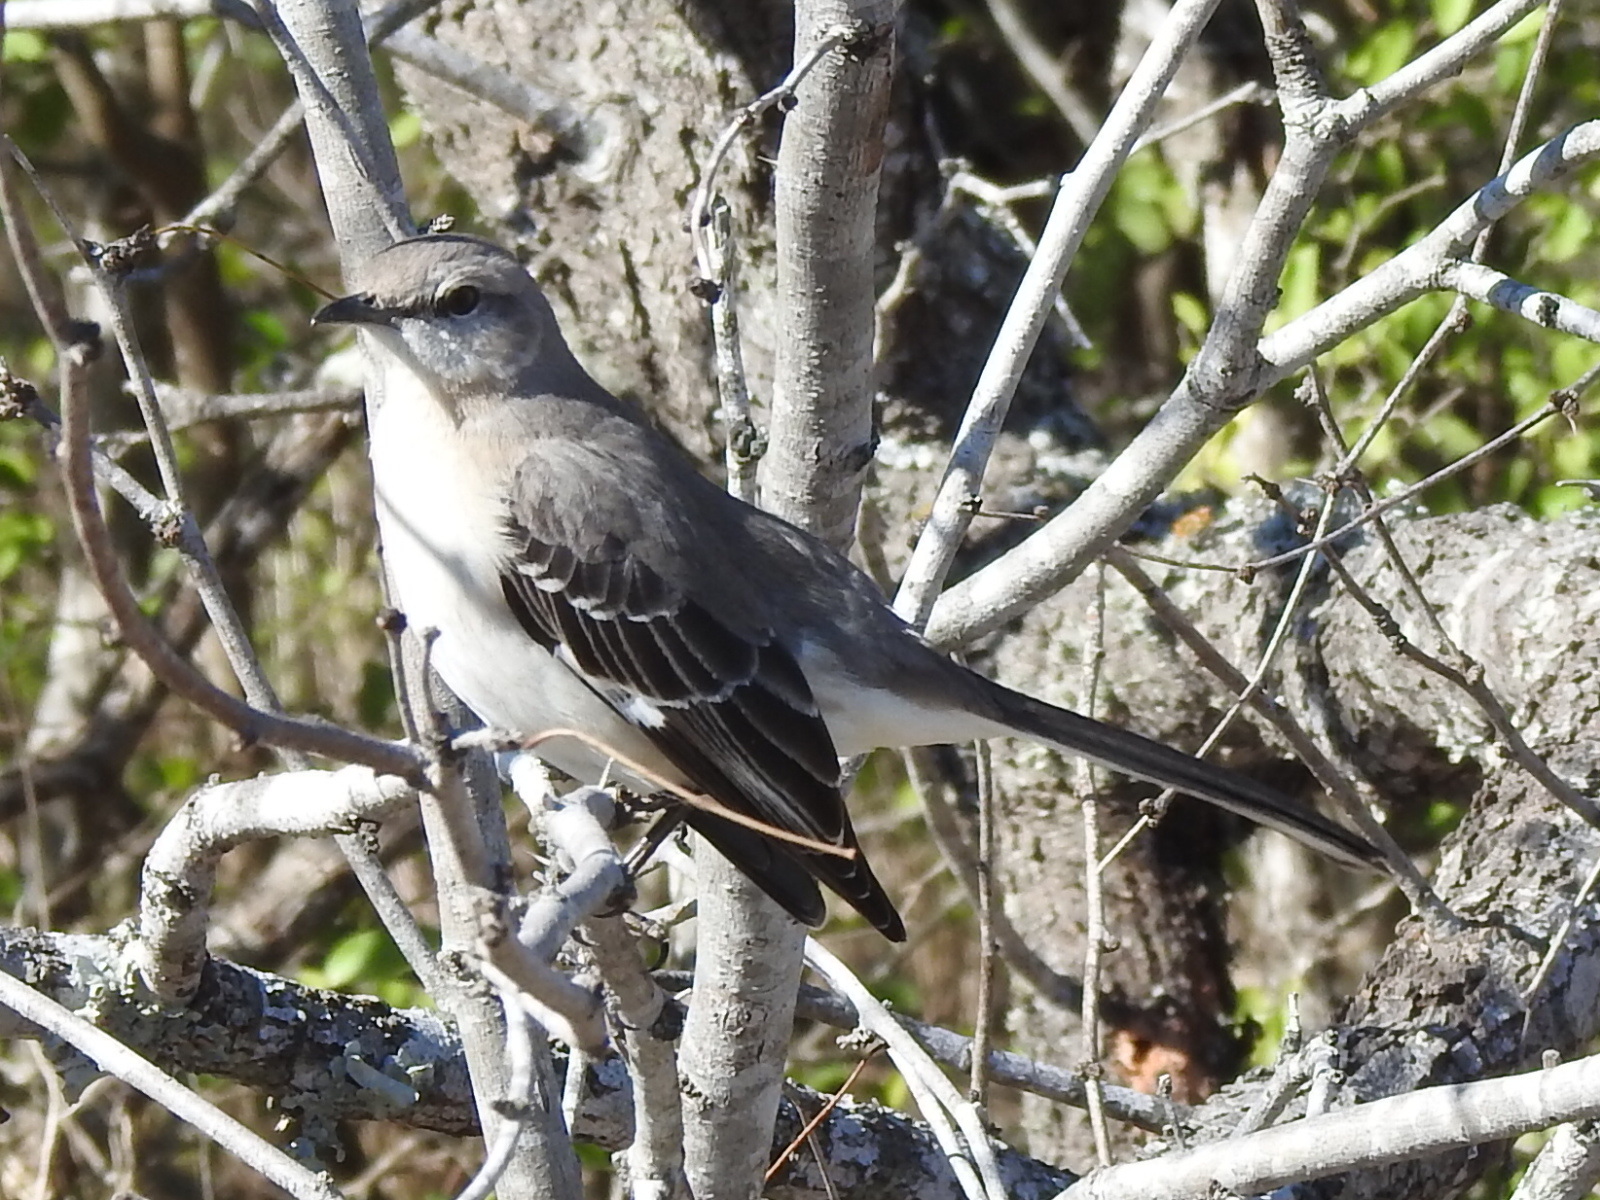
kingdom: Animalia
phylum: Chordata
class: Aves
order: Passeriformes
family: Mimidae
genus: Mimus
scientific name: Mimus polyglottos
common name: Northern mockingbird
